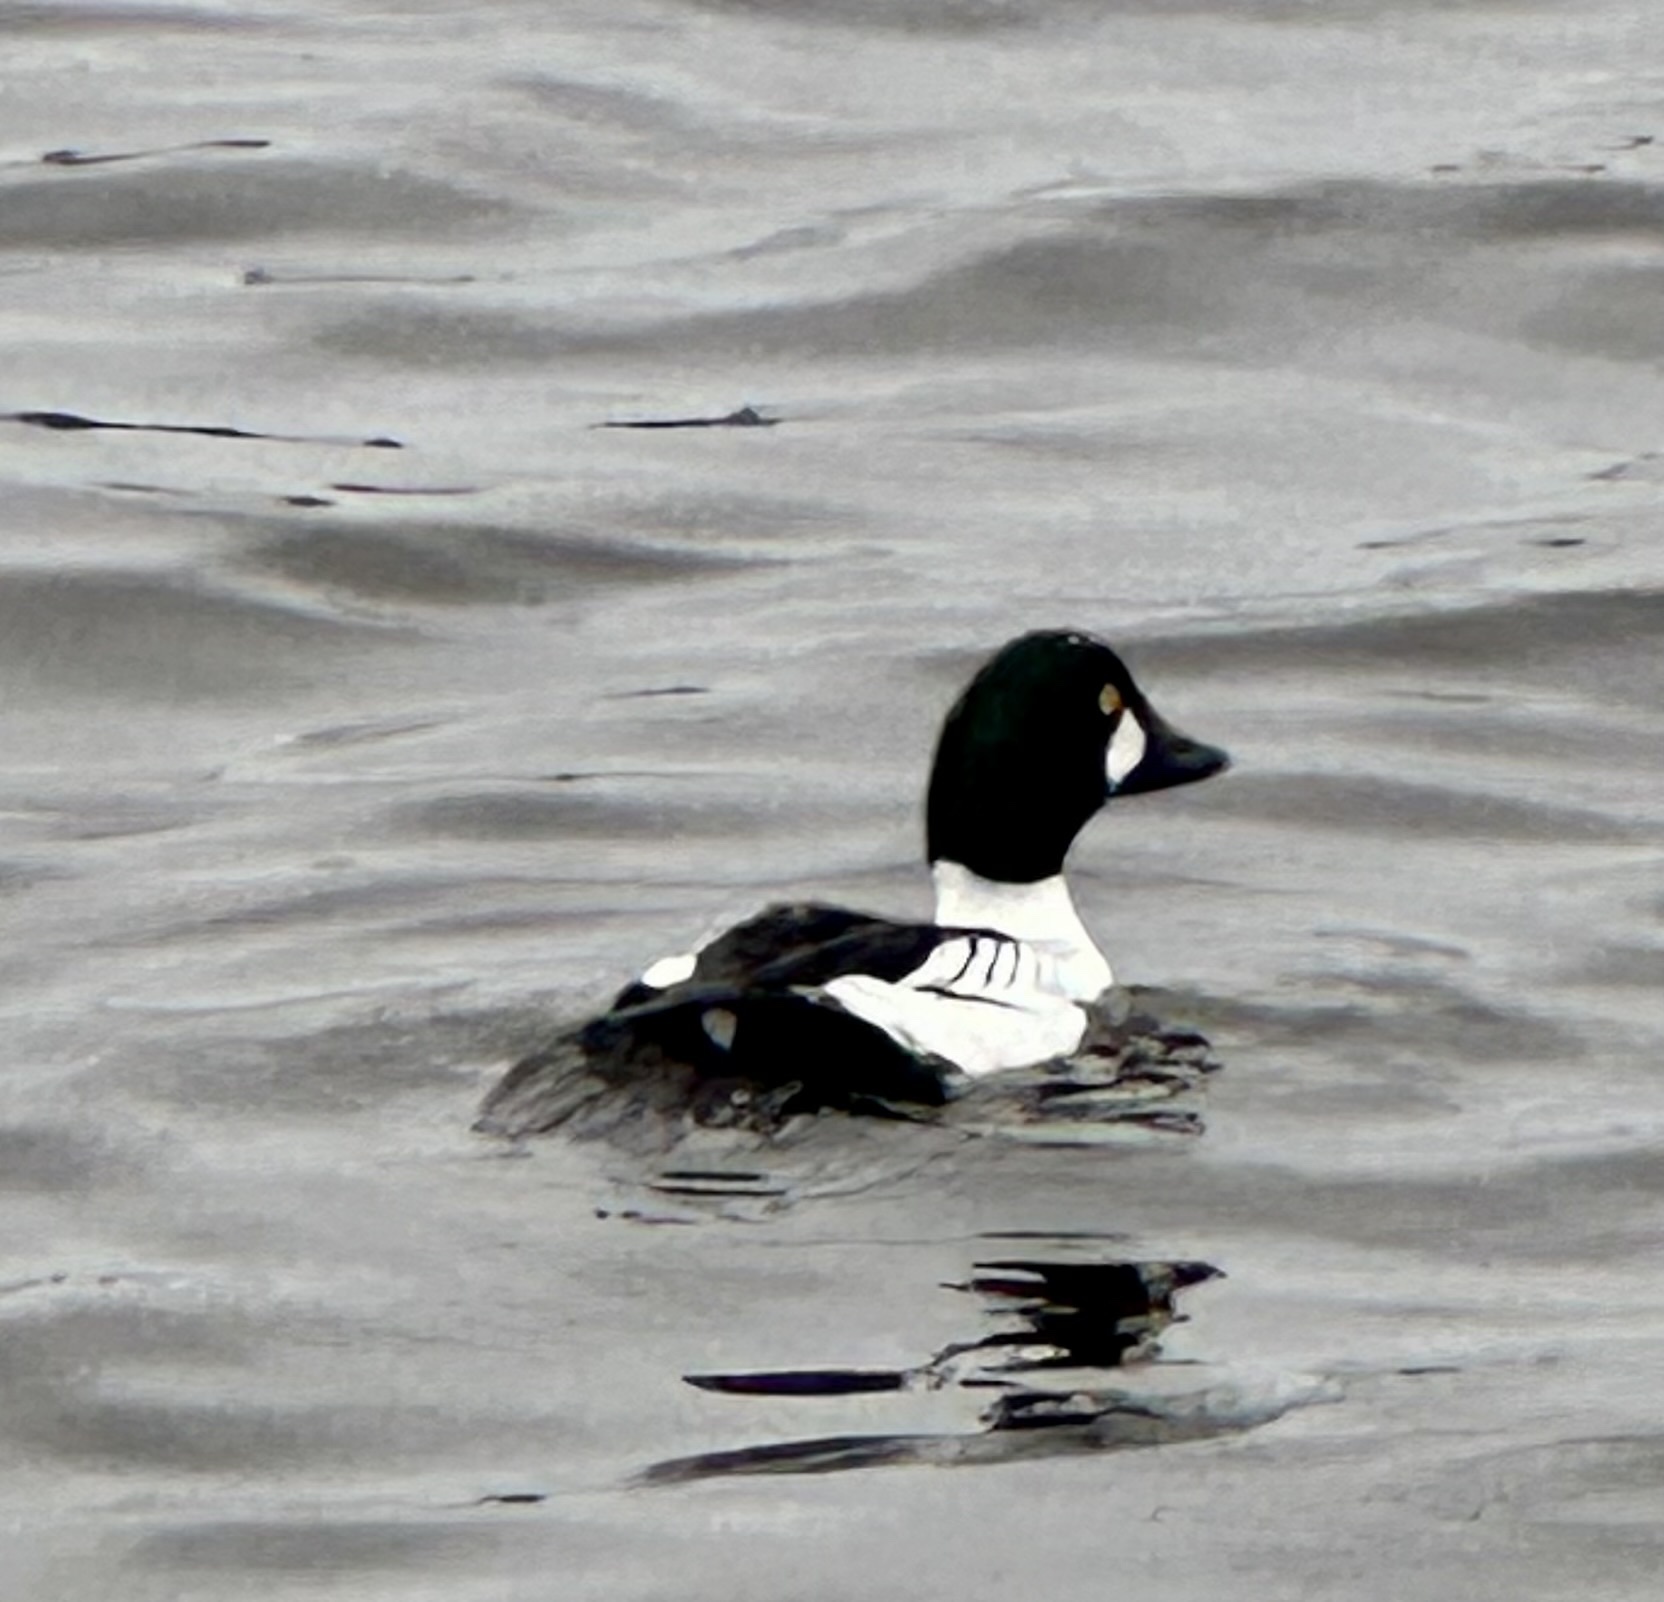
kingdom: Animalia
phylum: Chordata
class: Aves
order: Anseriformes
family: Anatidae
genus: Bucephala
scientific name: Bucephala clangula
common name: Common goldeneye
